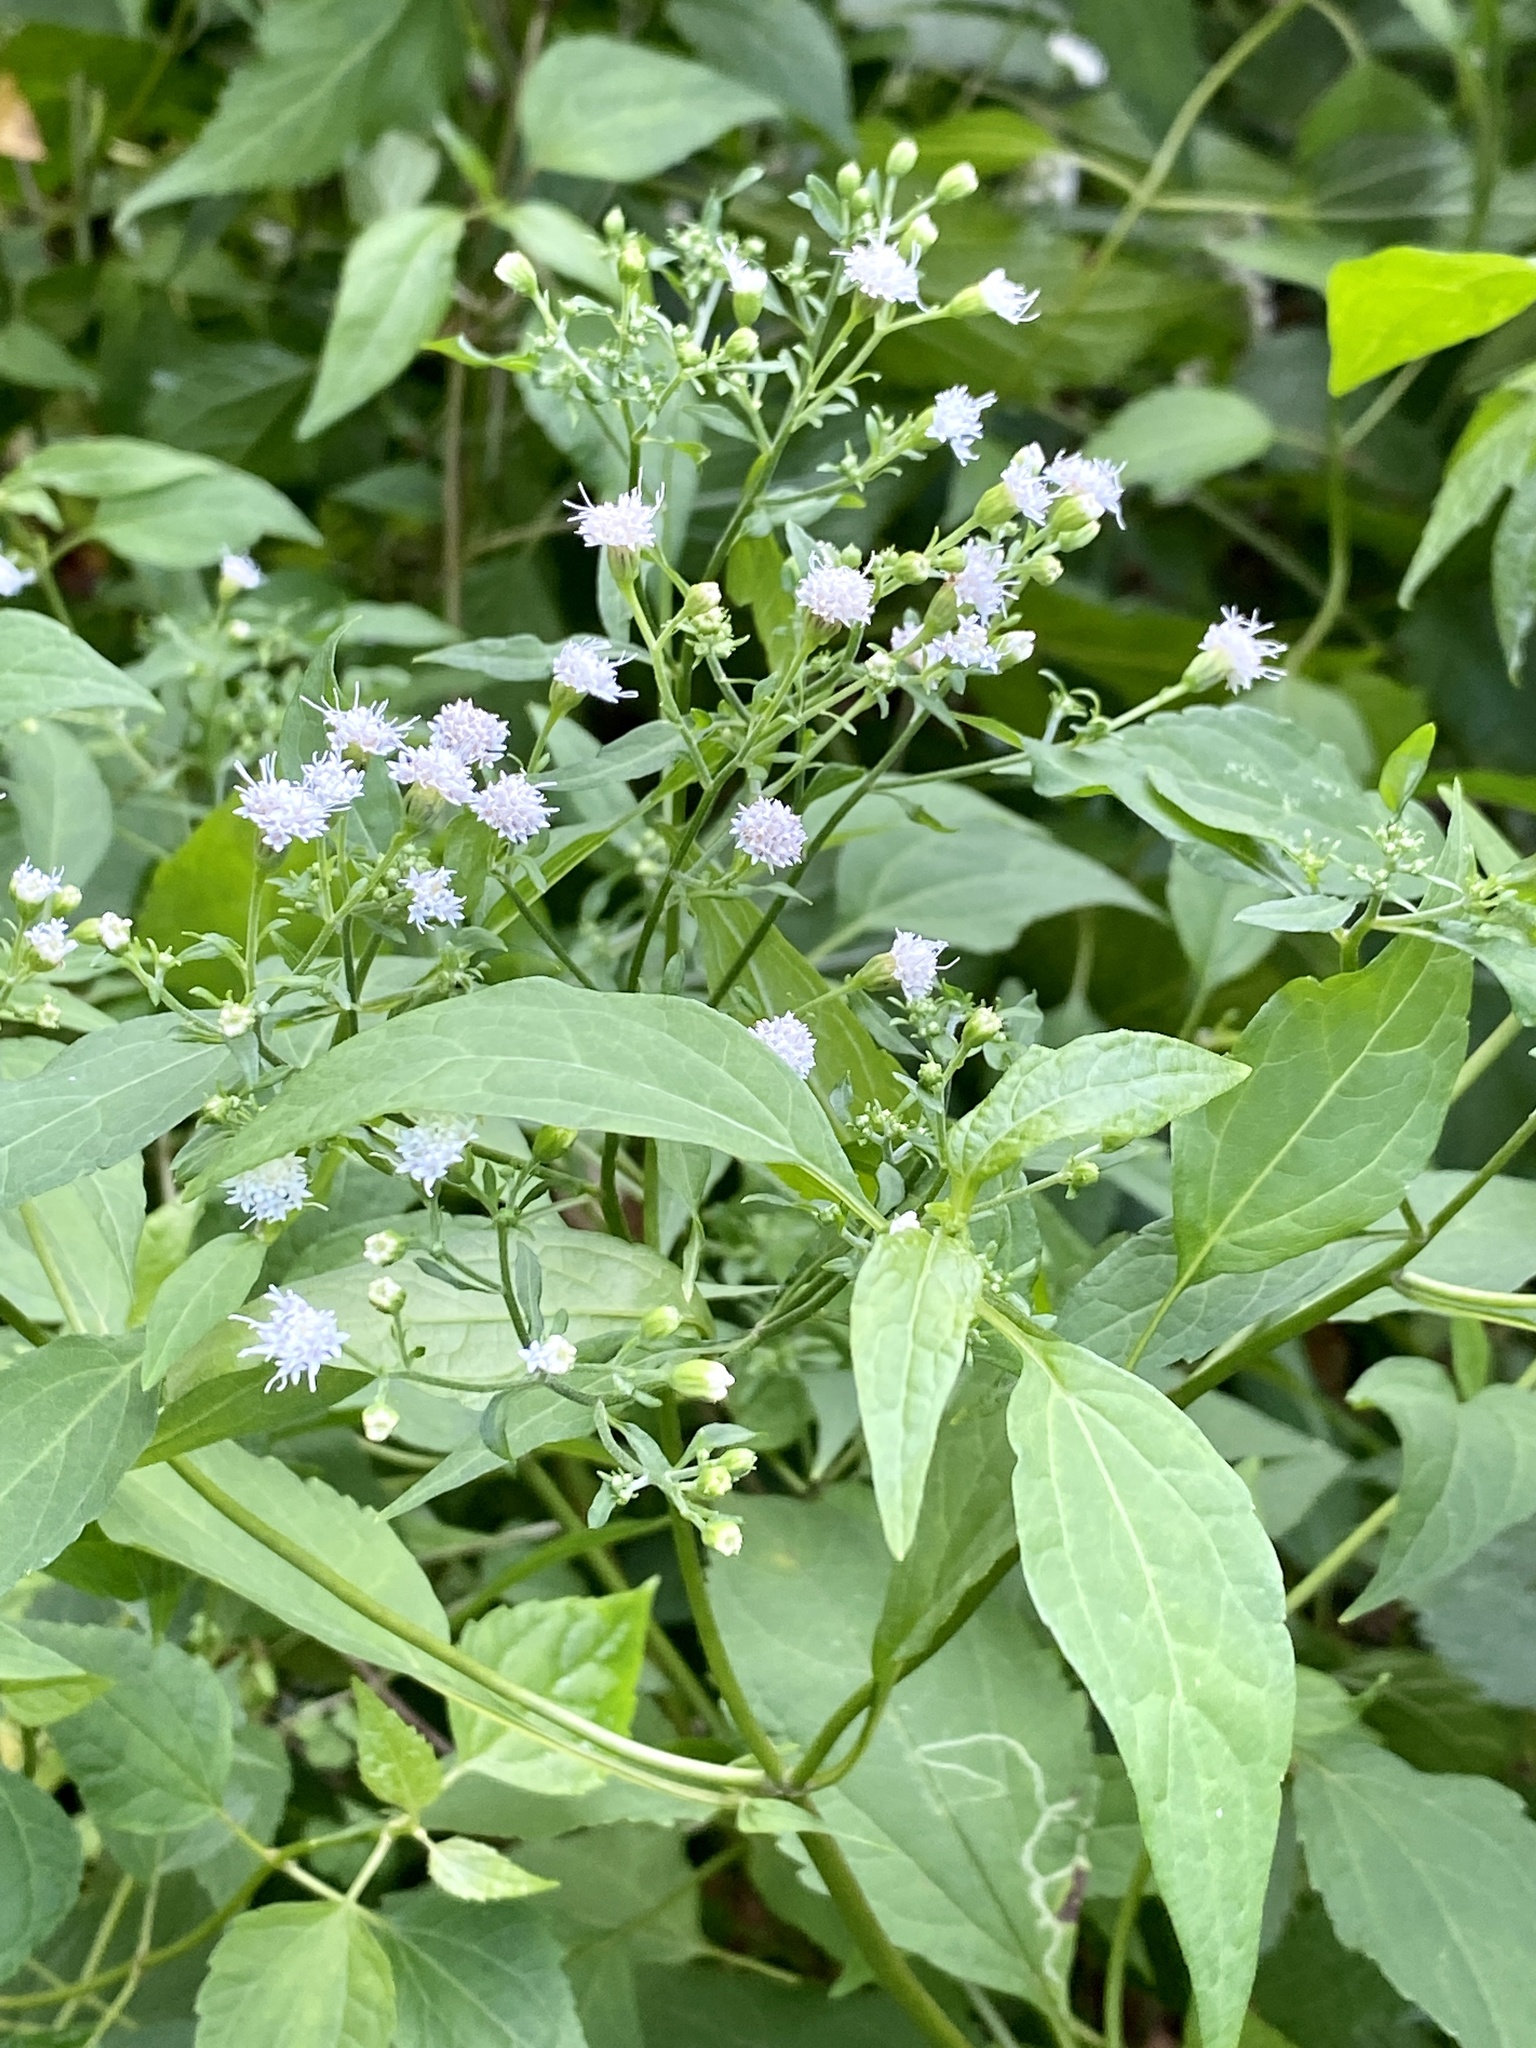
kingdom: Plantae
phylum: Tracheophyta
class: Magnoliopsida
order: Asterales
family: Asteraceae
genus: Ageratina
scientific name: Ageratina altissima
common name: White snakeroot
